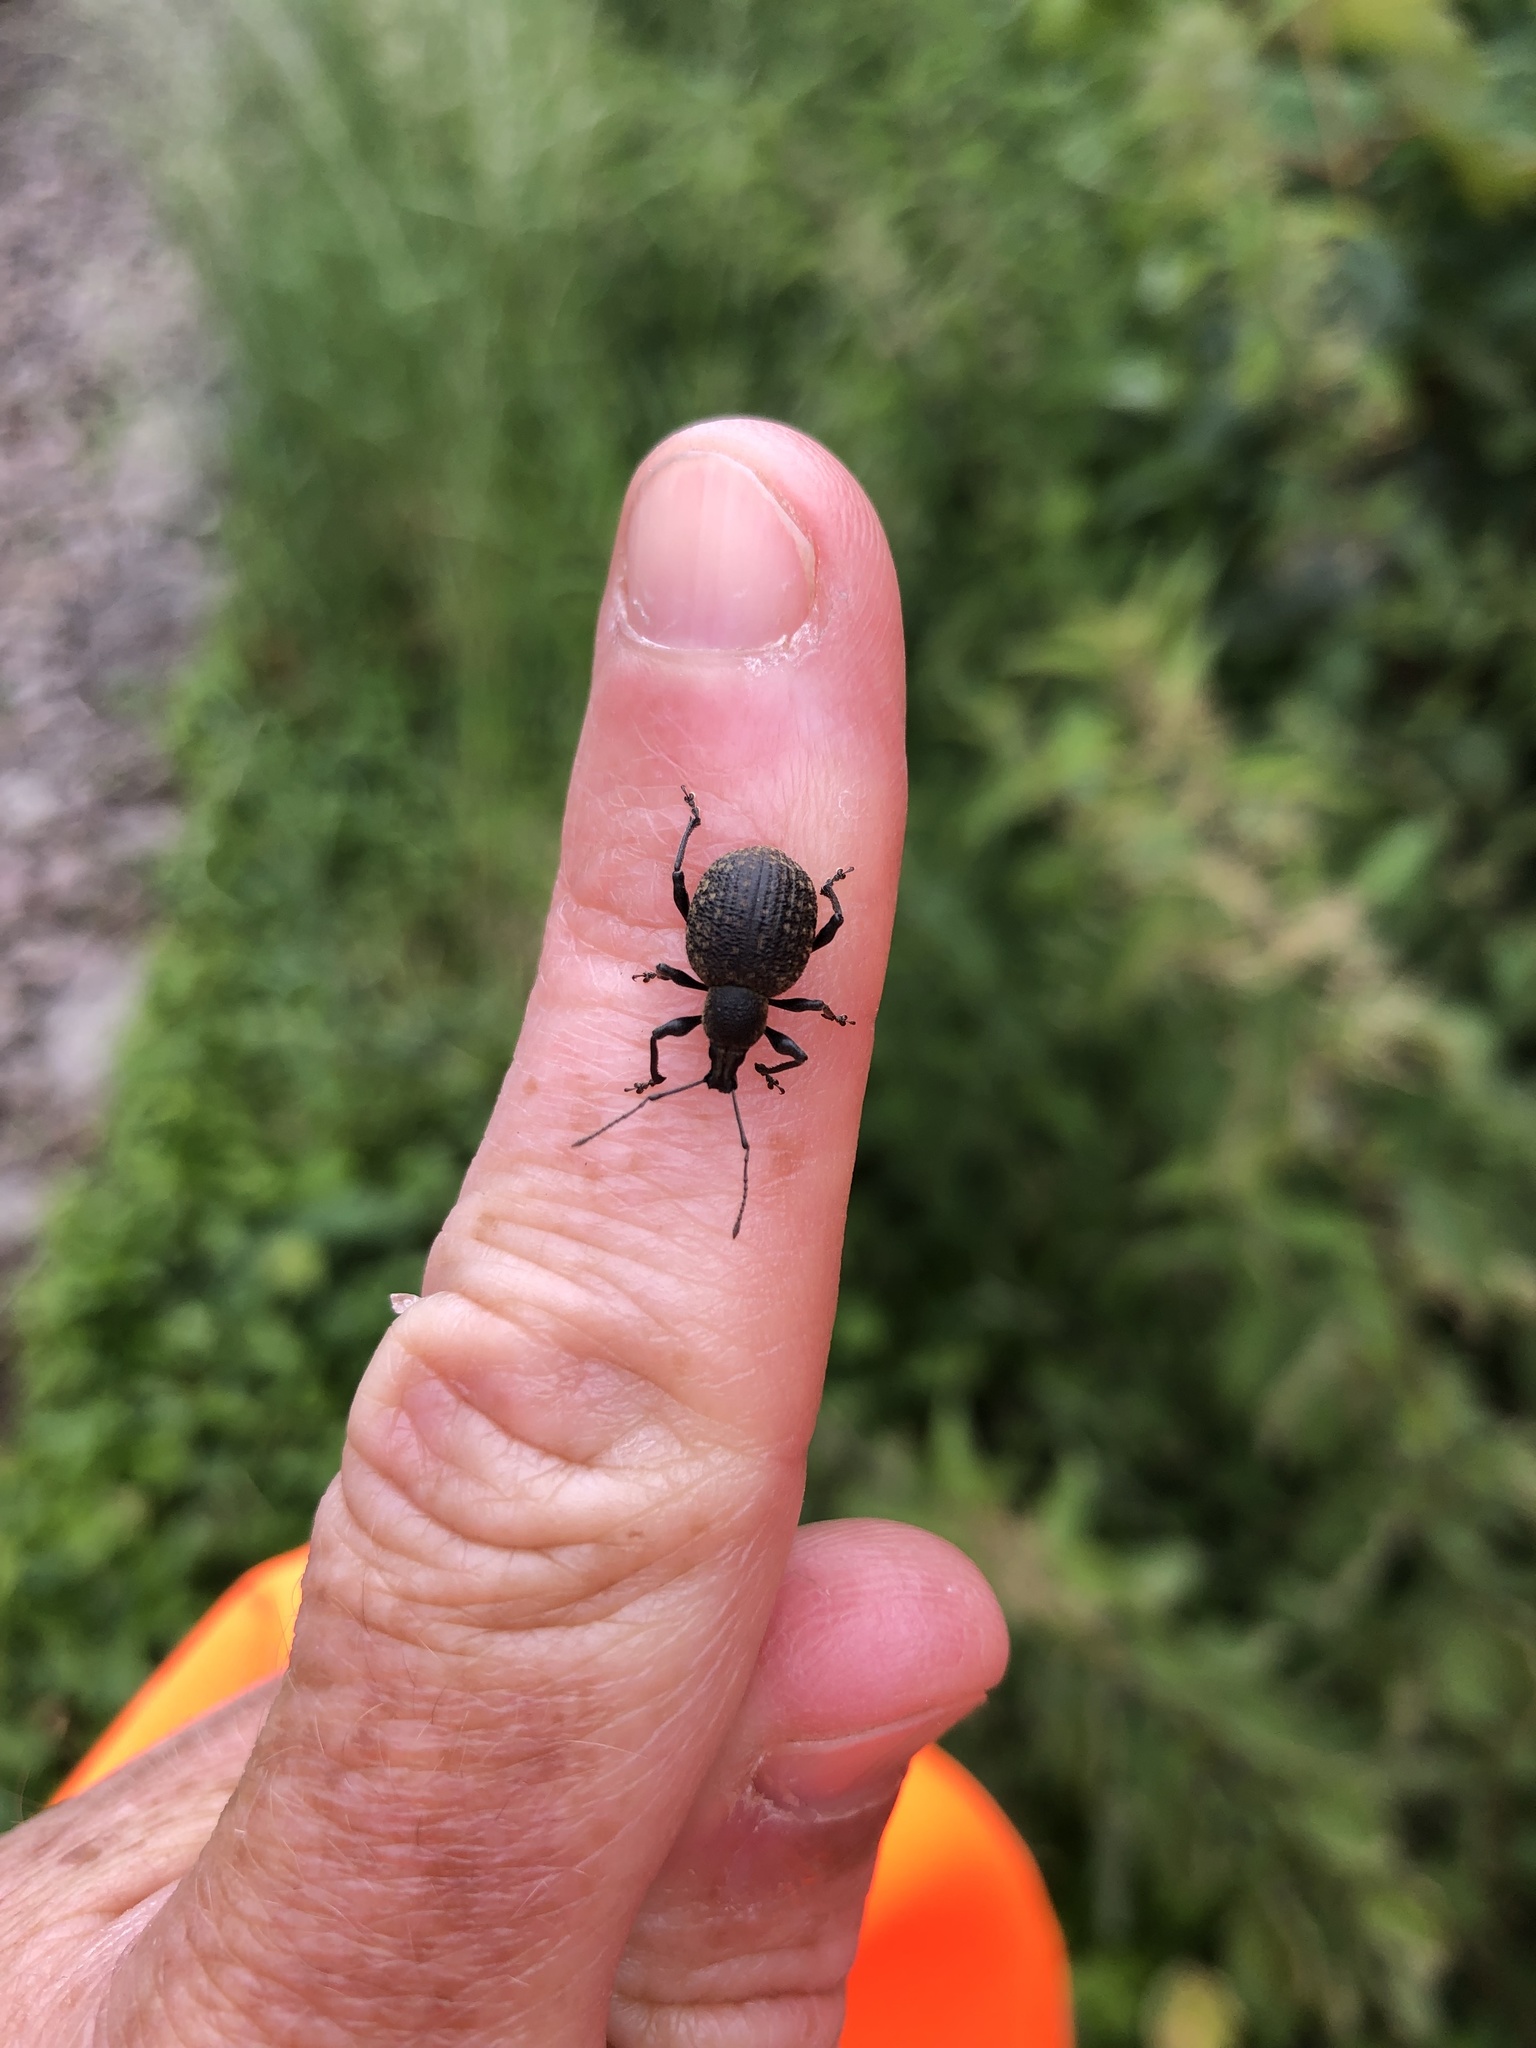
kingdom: Animalia
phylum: Arthropoda
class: Insecta
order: Coleoptera
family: Curculionidae
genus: Otiorhynchus
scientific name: Otiorhynchus armadillo
